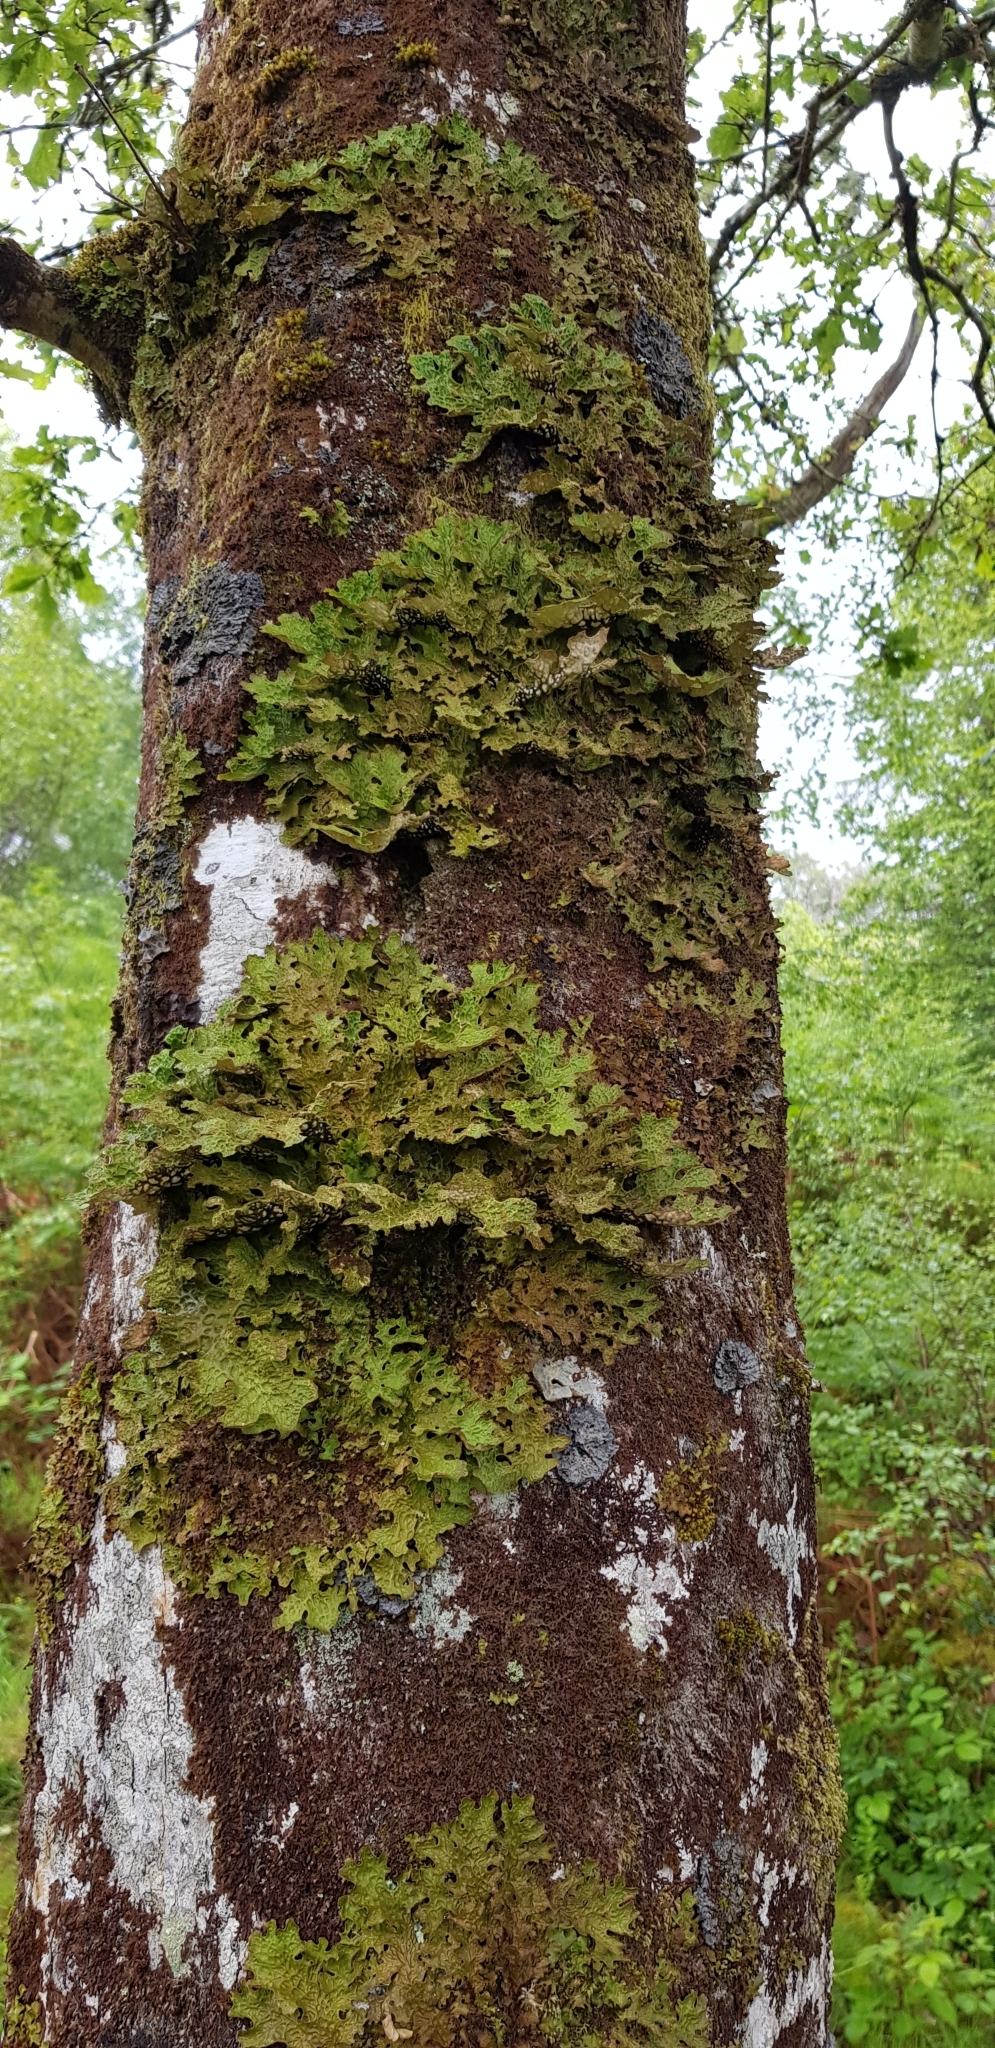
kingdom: Fungi
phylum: Ascomycota
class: Lecanoromycetes
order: Peltigerales
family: Lobariaceae
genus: Lobaria
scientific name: Lobaria pulmonaria
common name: Lungwort
